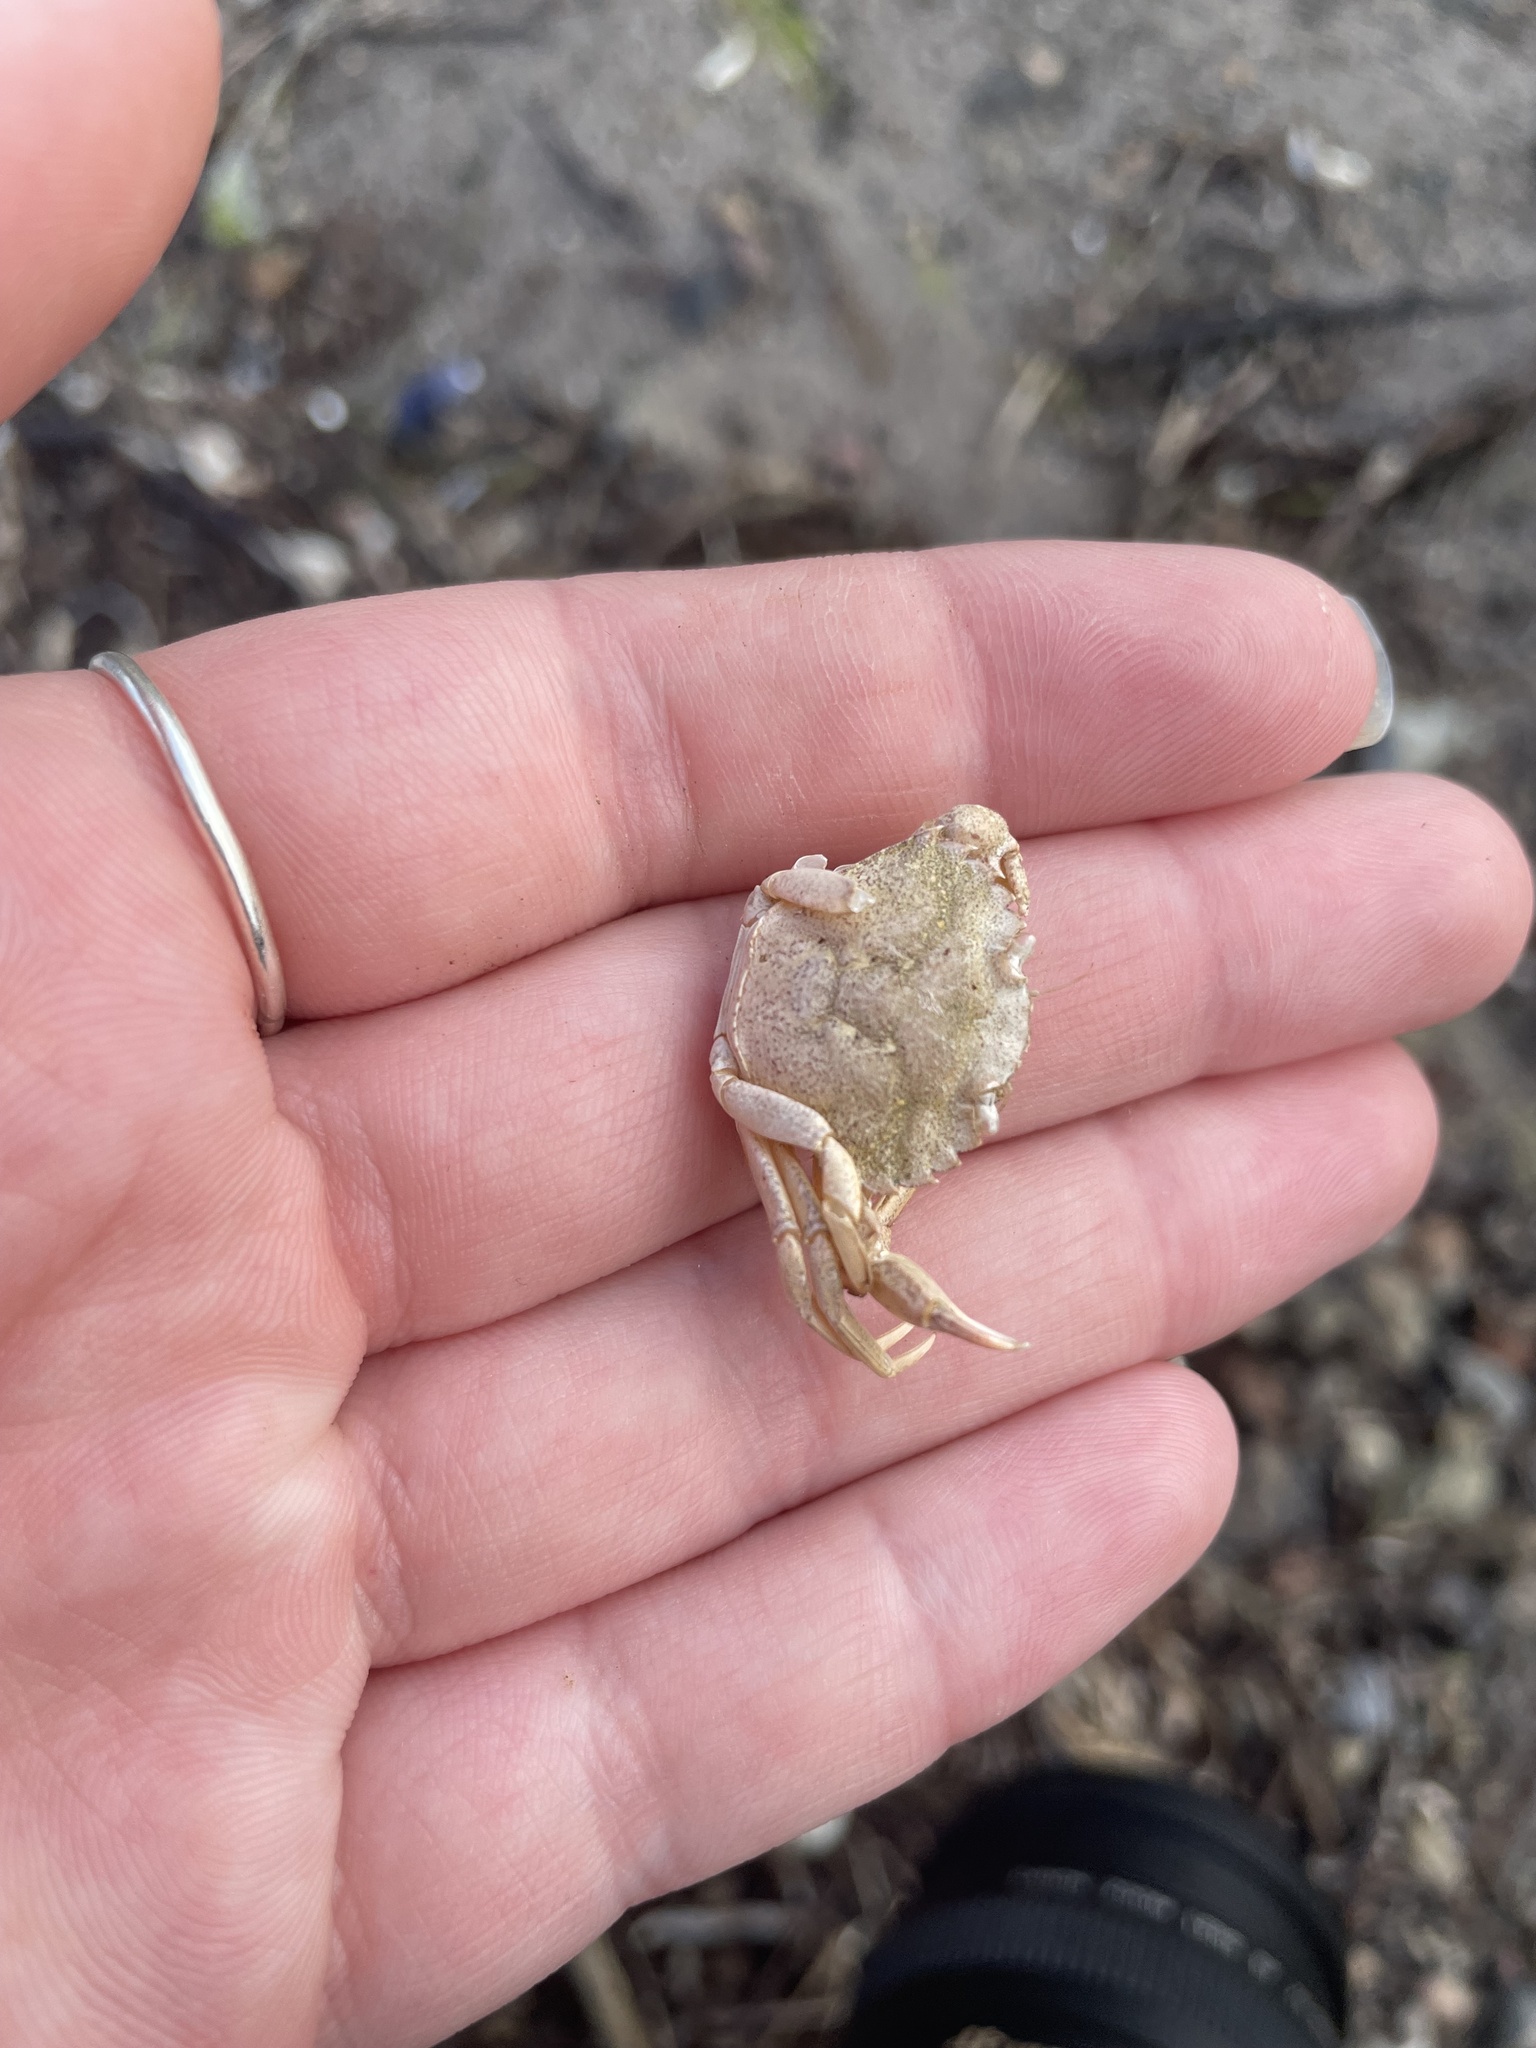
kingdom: Animalia
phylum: Arthropoda
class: Malacostraca
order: Decapoda
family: Carcinidae
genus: Carcinus
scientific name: Carcinus maenas
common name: European green crab
